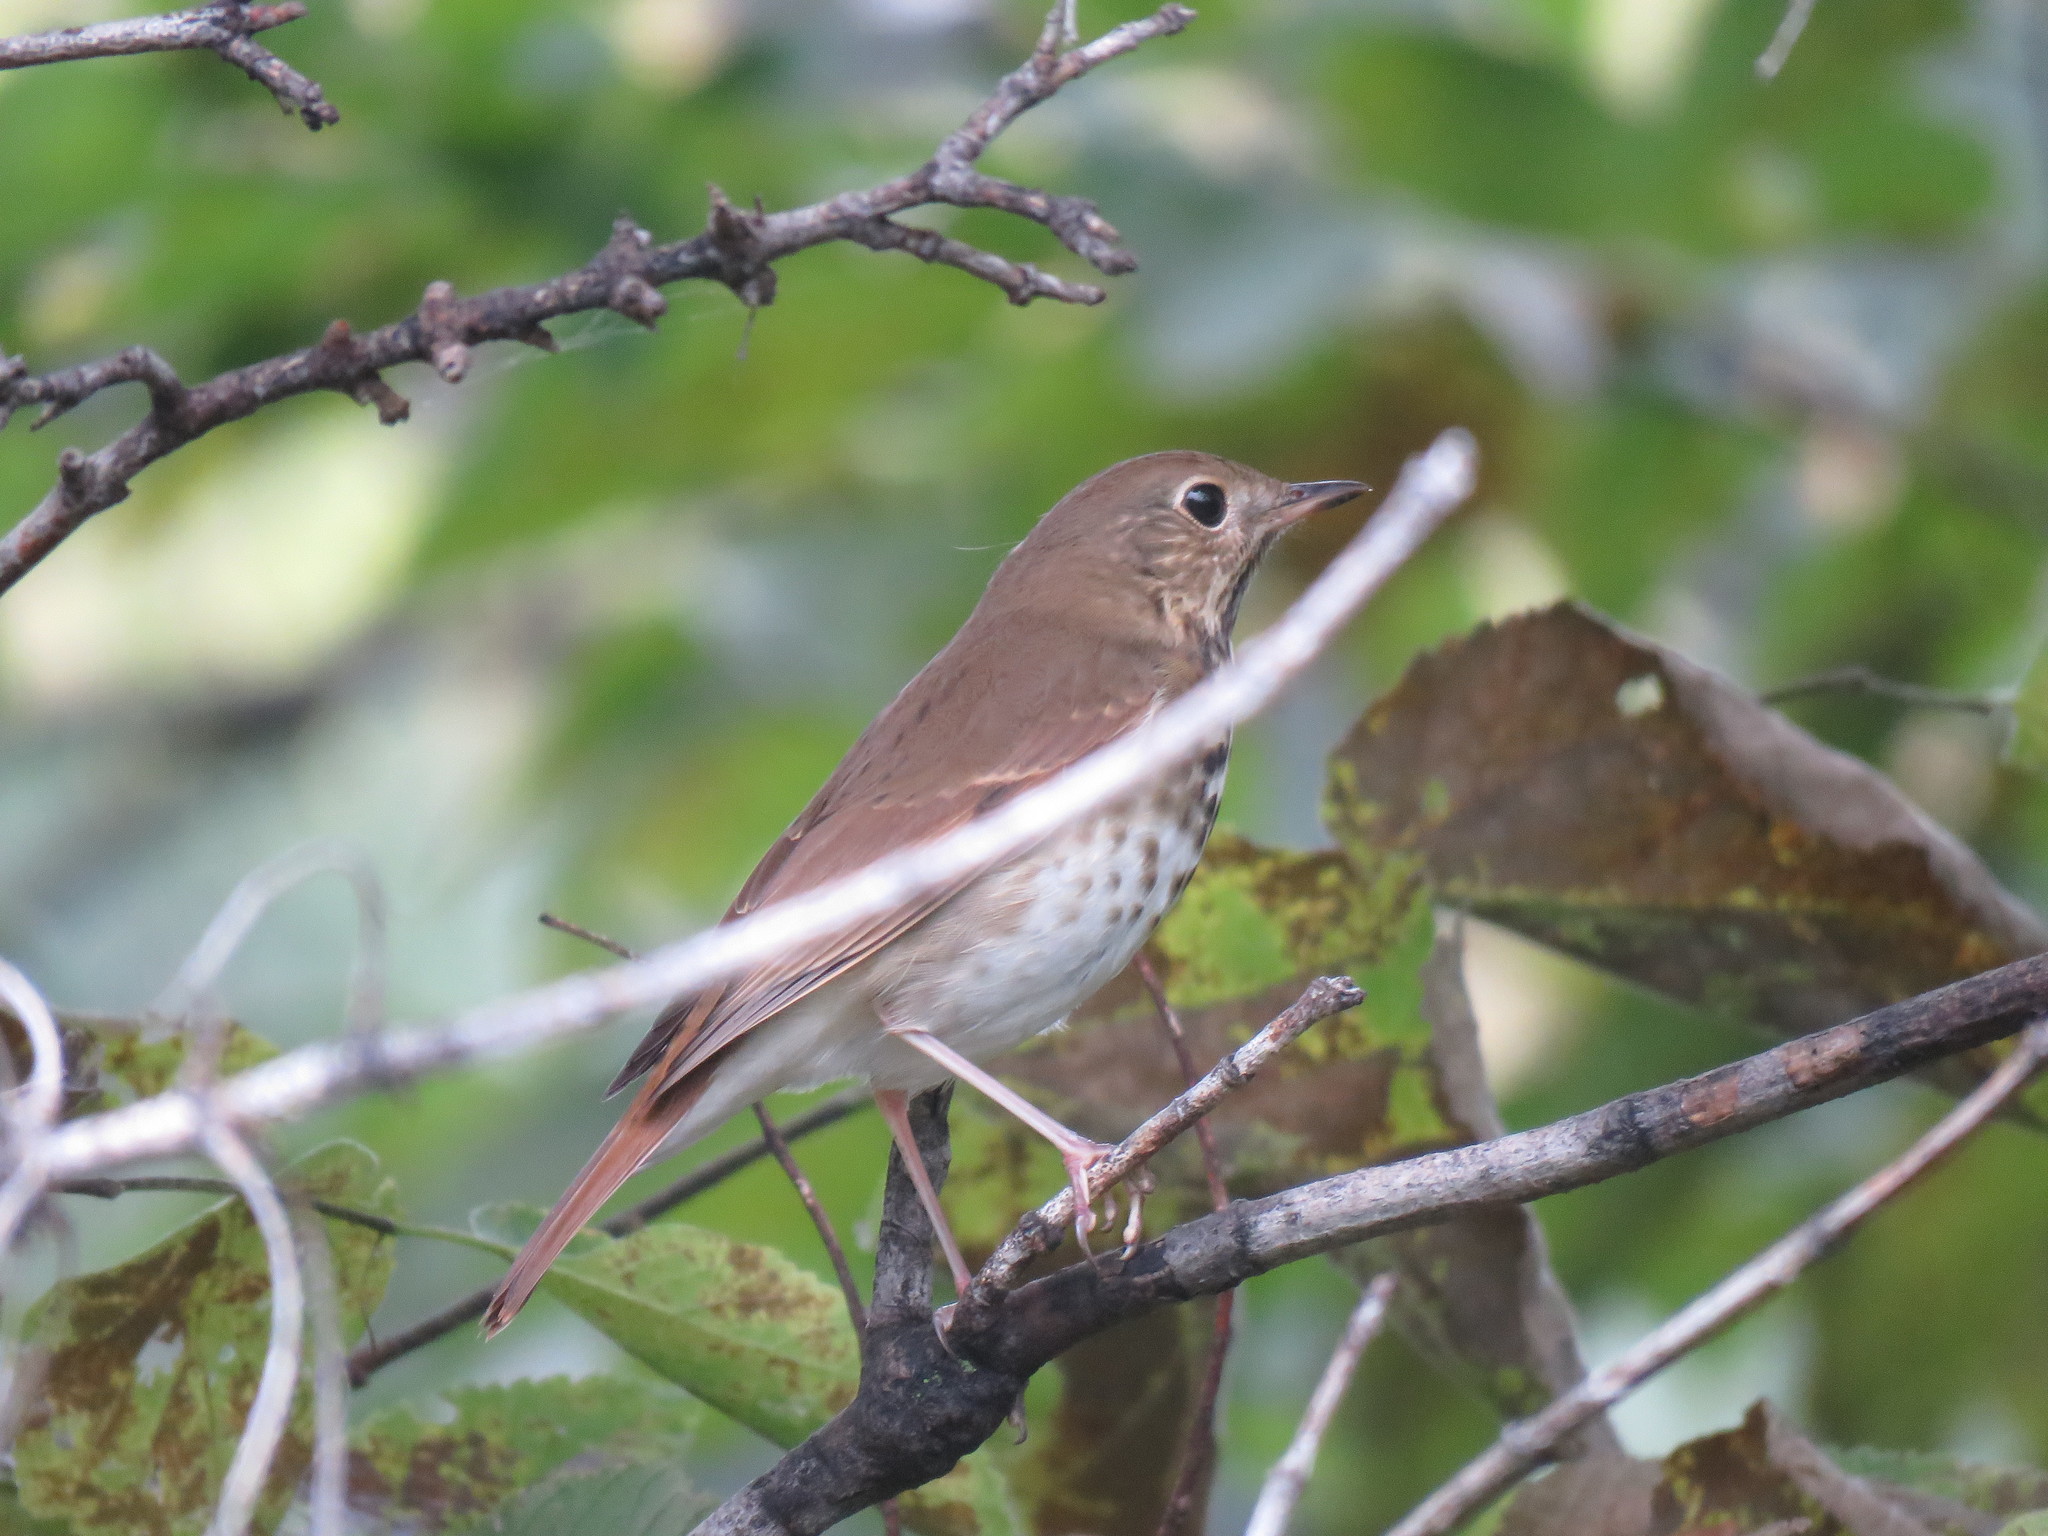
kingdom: Animalia
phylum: Chordata
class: Aves
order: Passeriformes
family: Turdidae
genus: Catharus
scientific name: Catharus guttatus
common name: Hermit thrush
